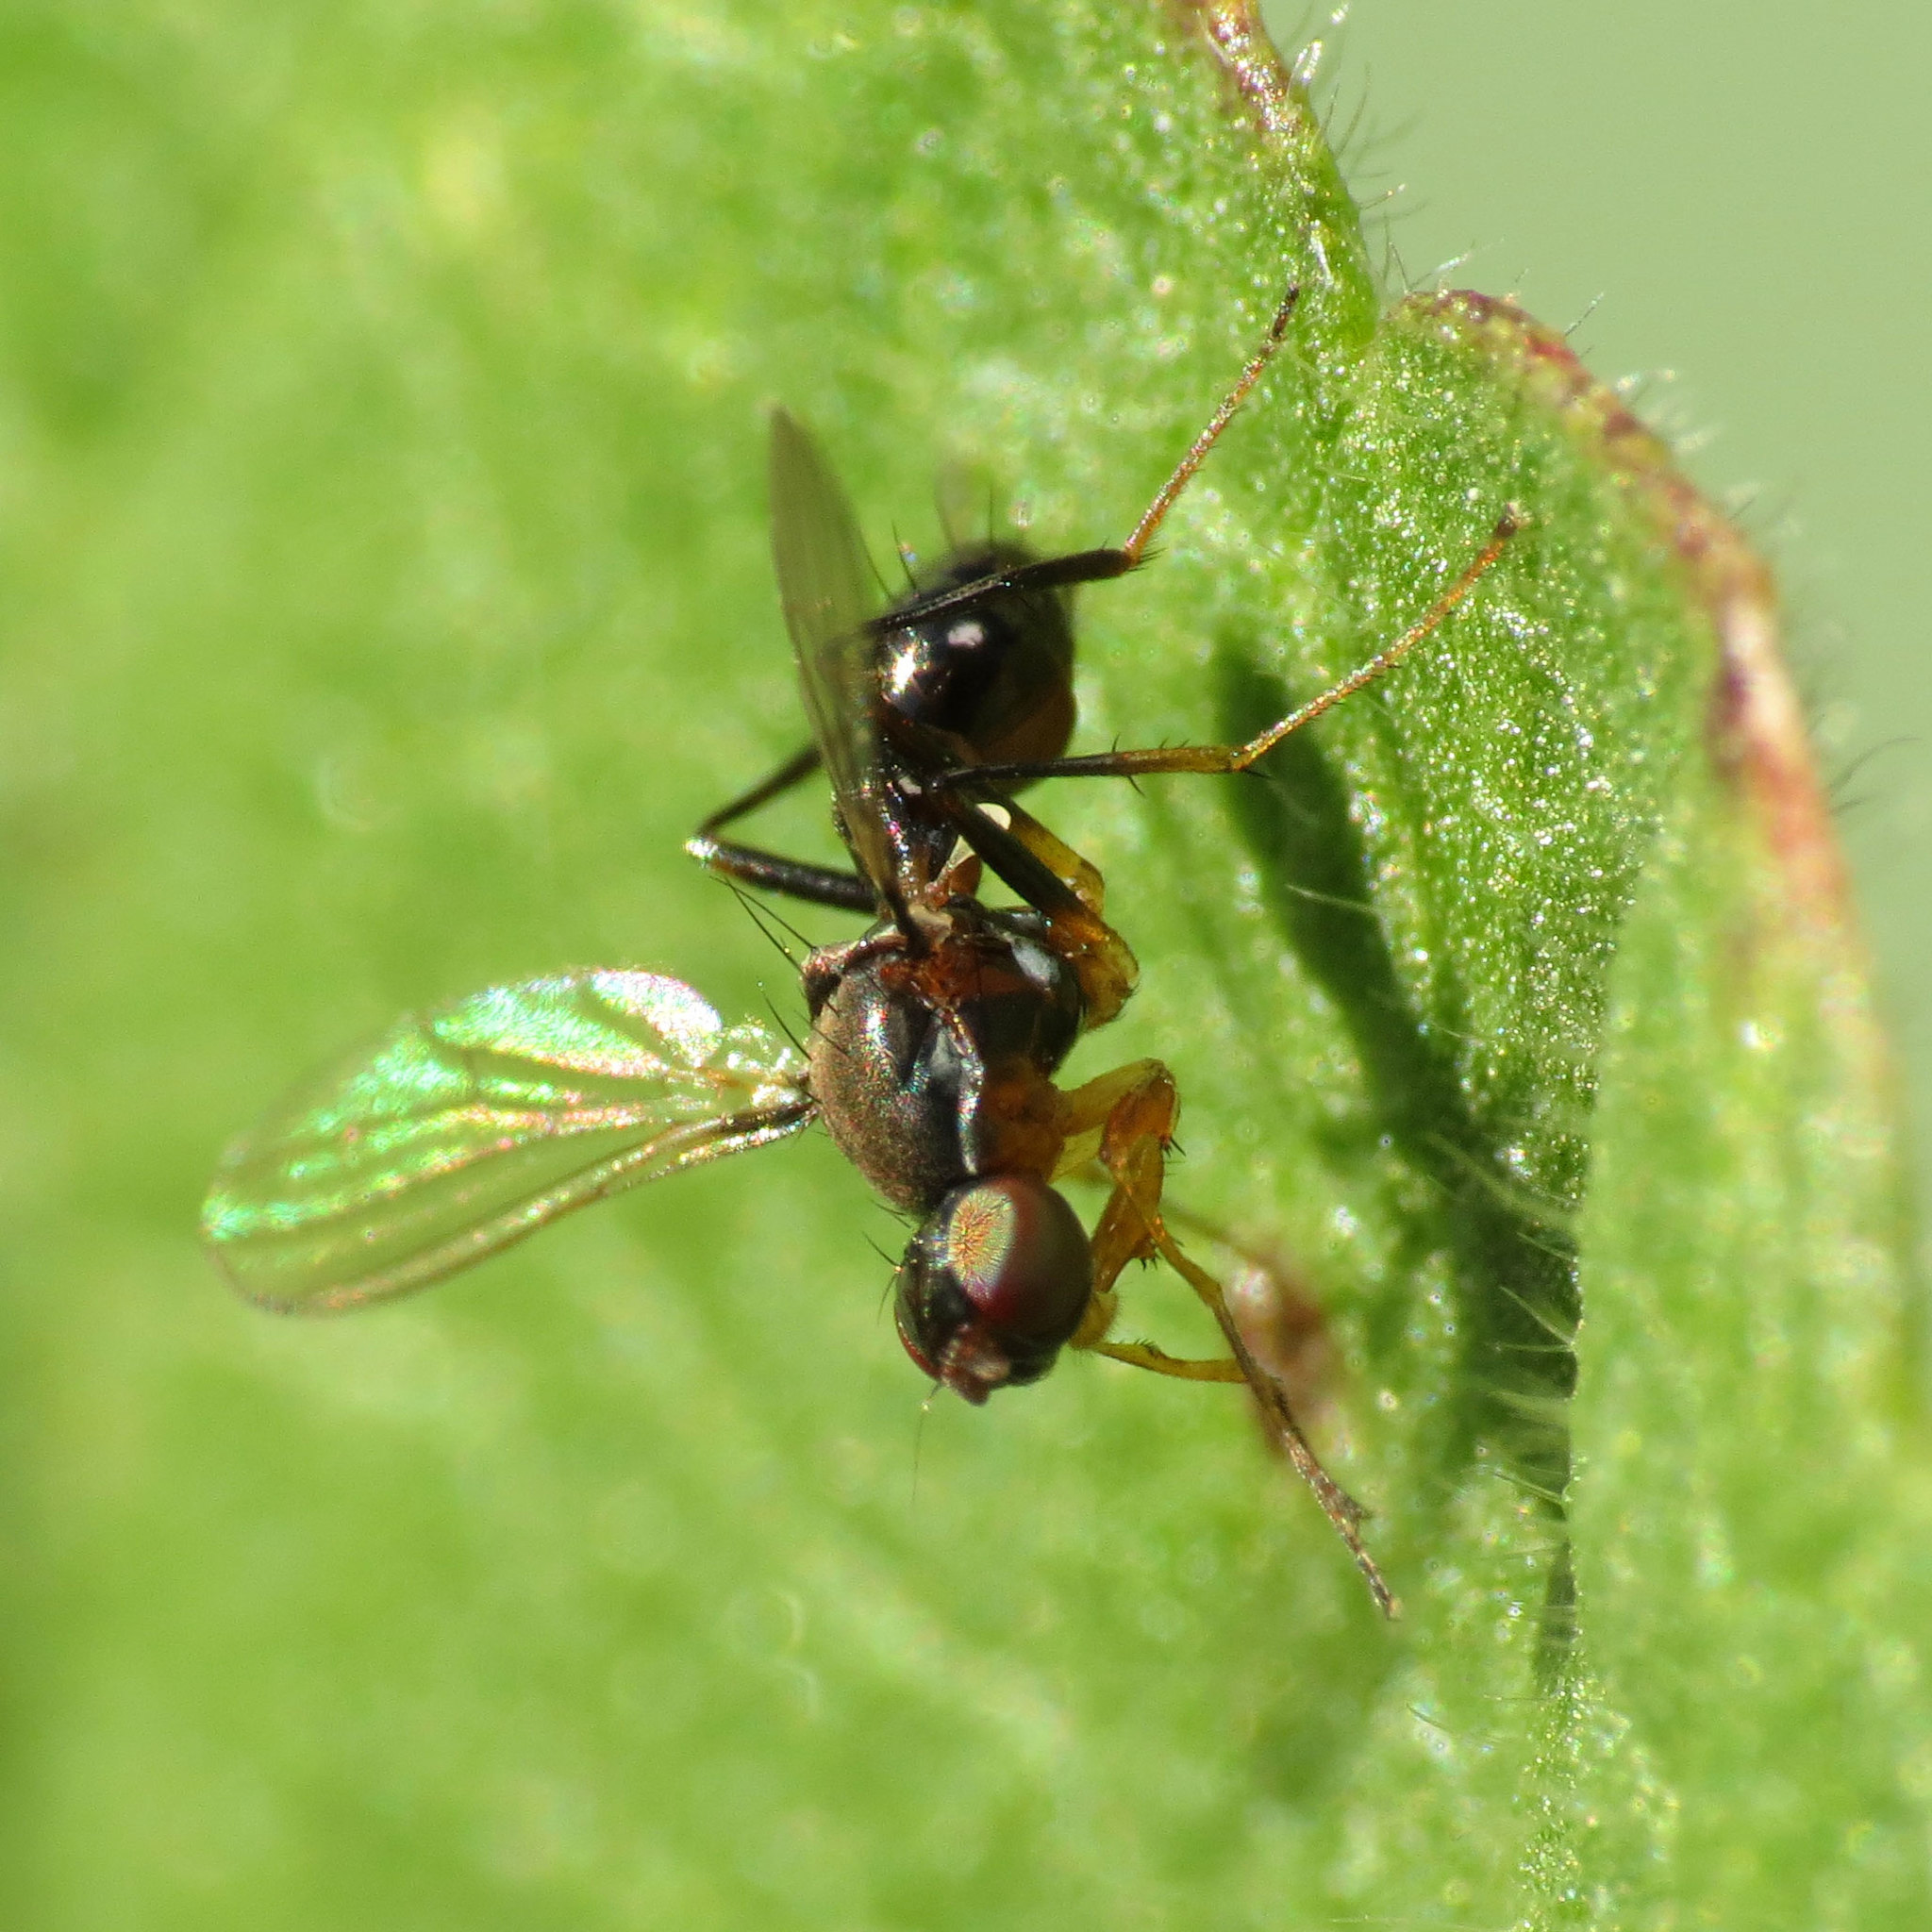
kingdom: Animalia
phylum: Arthropoda
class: Insecta
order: Diptera
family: Sepsidae
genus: Sepsis
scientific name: Sepsis lateralis
